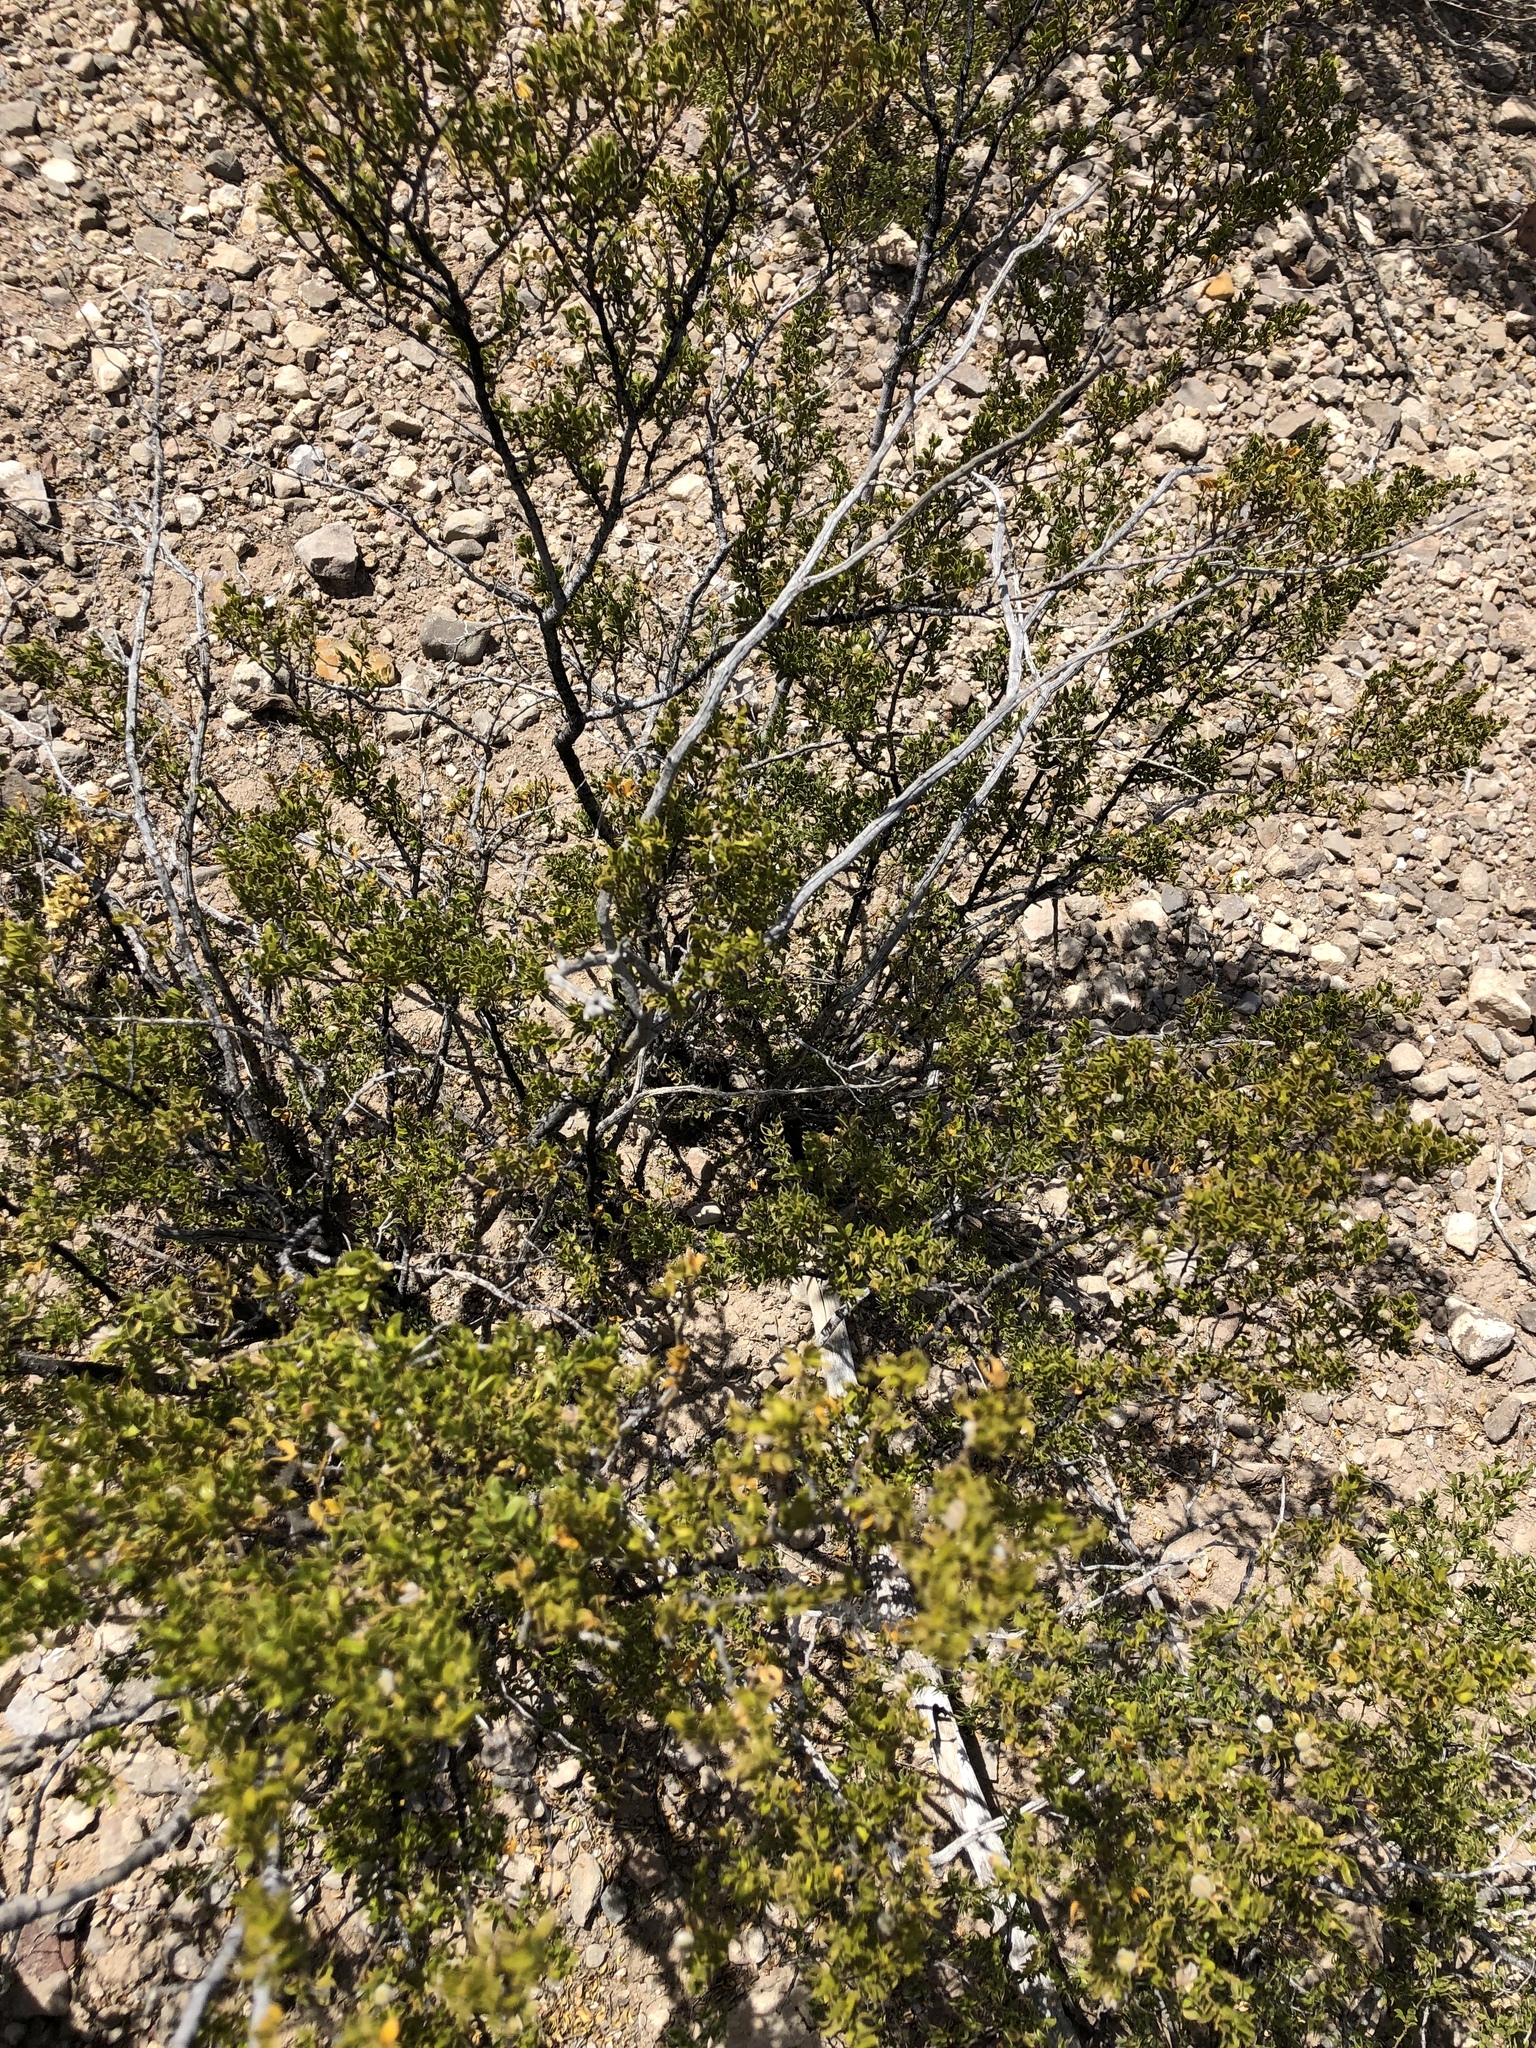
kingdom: Plantae
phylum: Tracheophyta
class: Magnoliopsida
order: Zygophyllales
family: Zygophyllaceae
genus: Larrea
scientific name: Larrea tridentata
